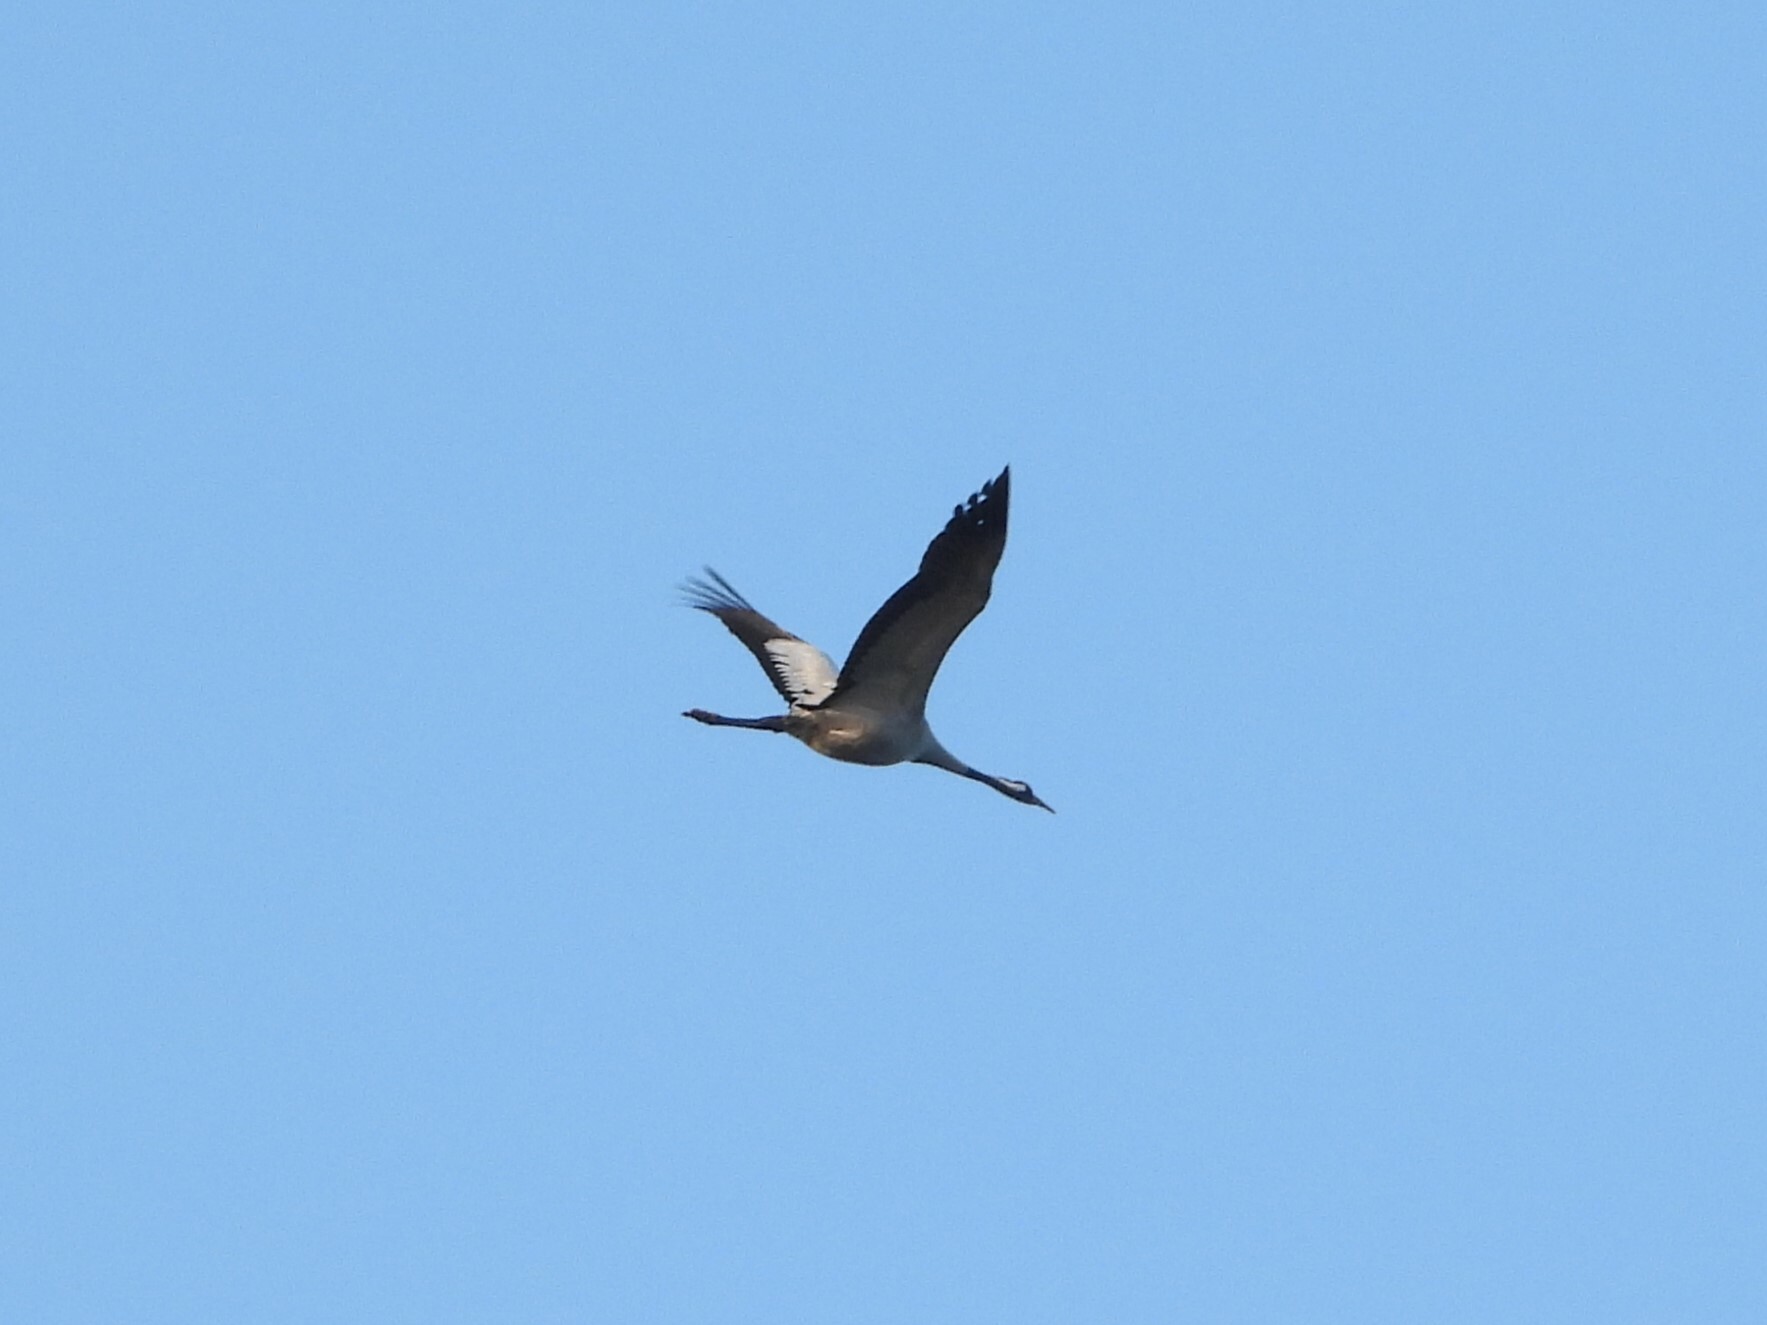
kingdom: Animalia
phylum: Chordata
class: Aves
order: Gruiformes
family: Gruidae
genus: Grus
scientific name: Grus grus
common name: Common crane
